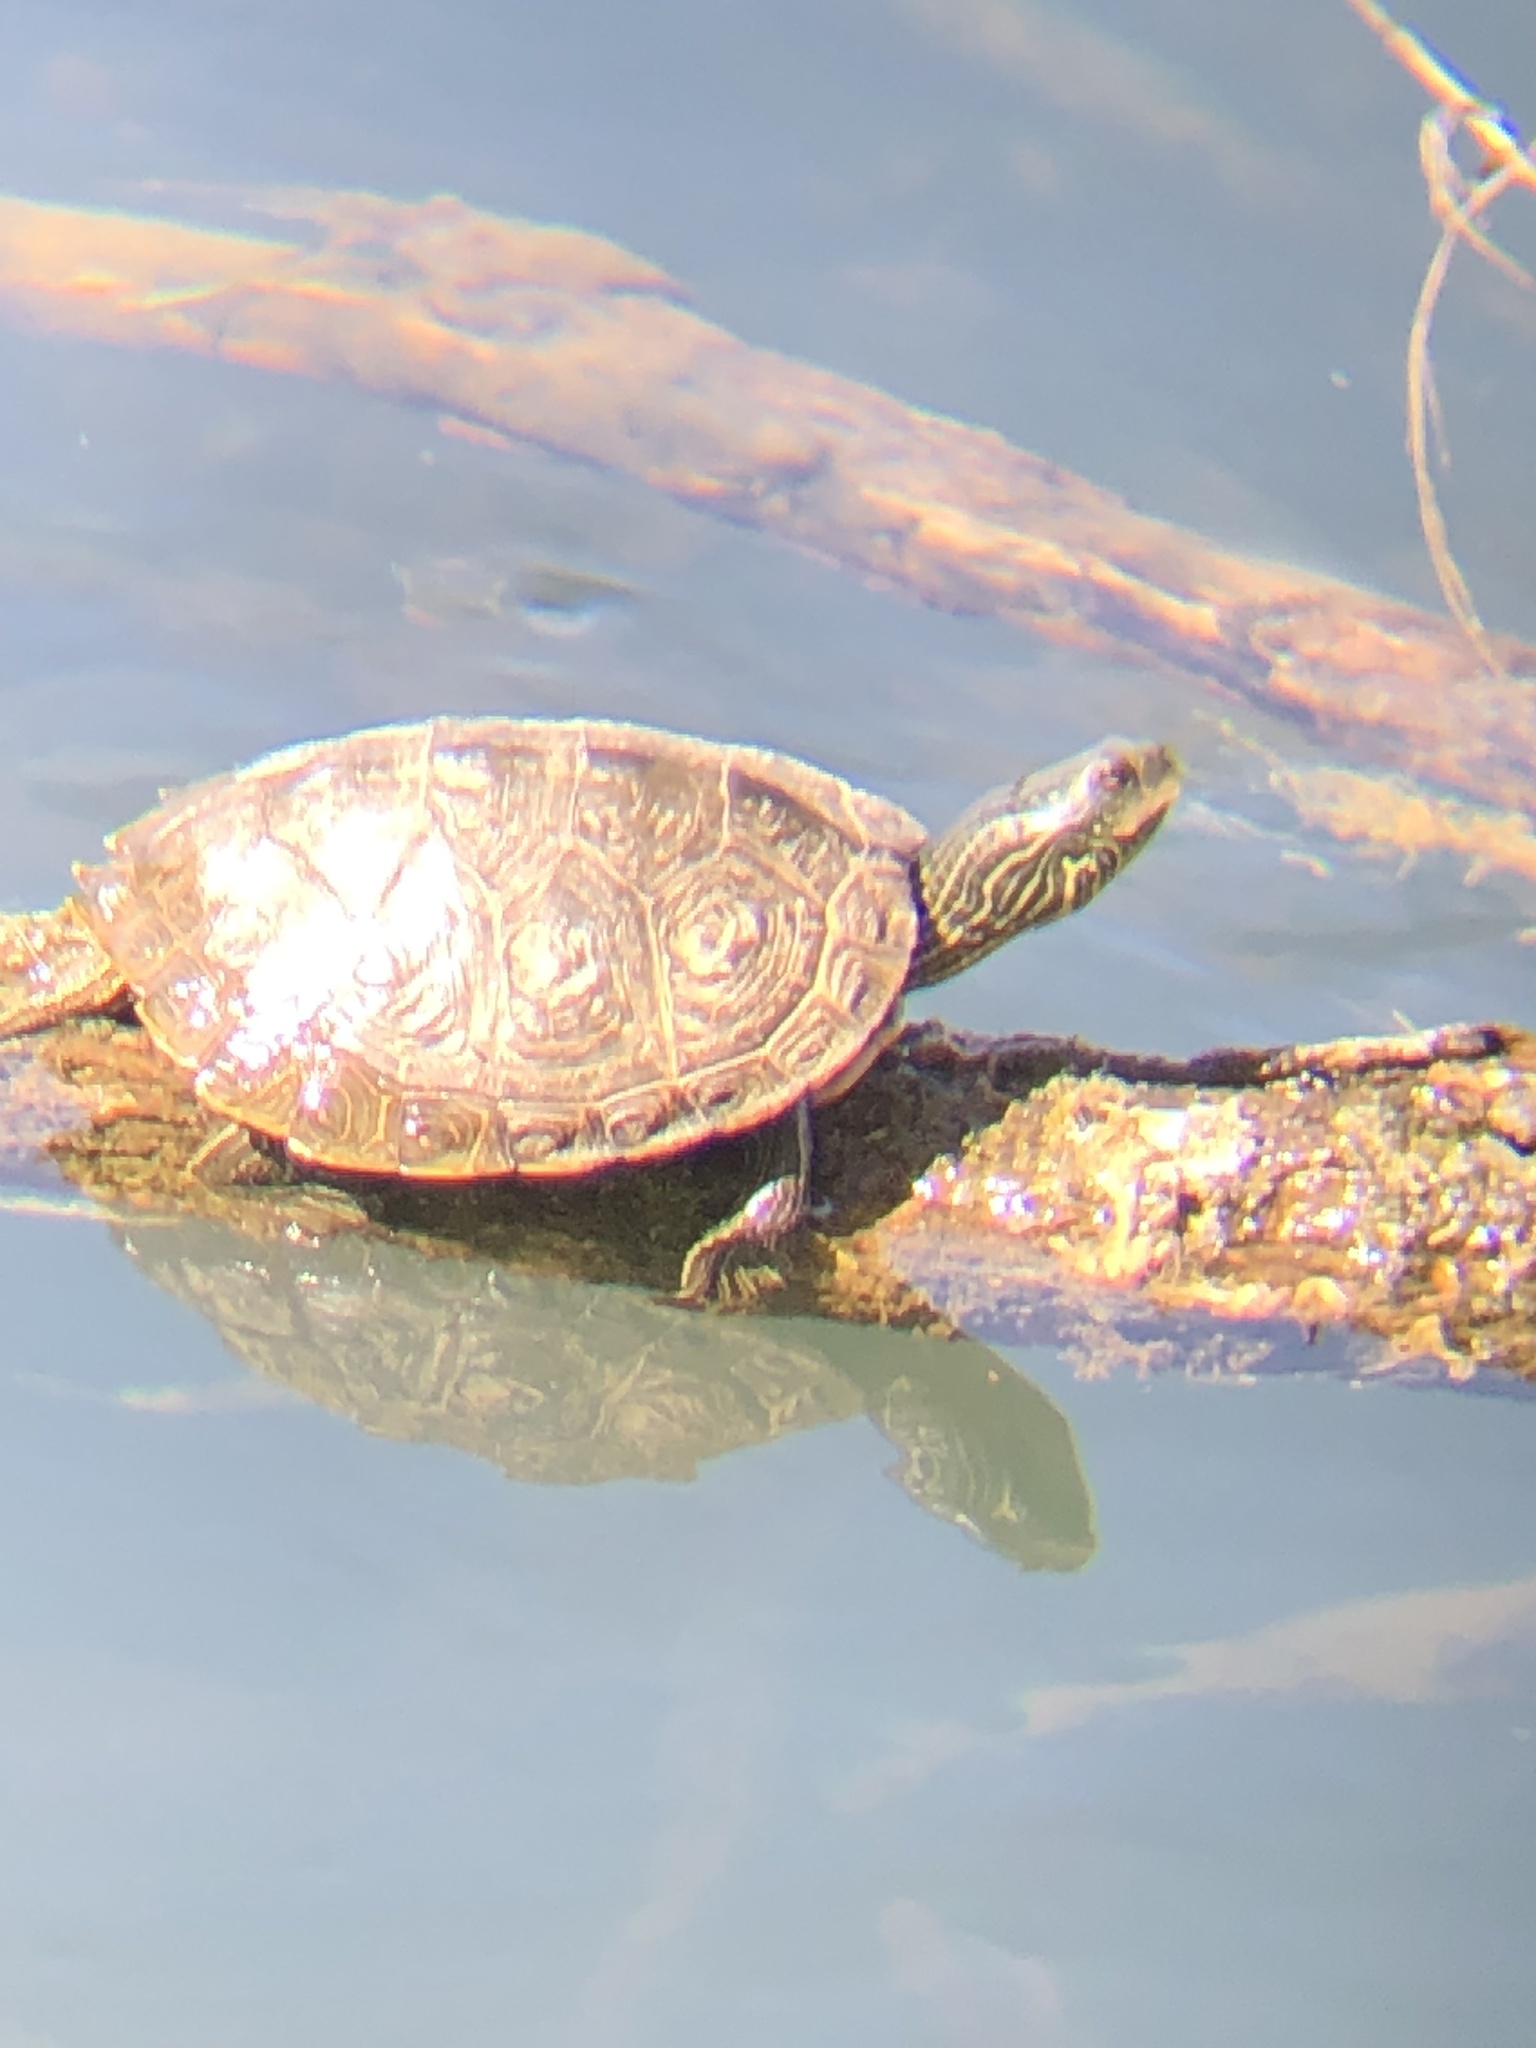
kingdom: Animalia
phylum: Chordata
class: Testudines
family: Emydidae
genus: Graptemys
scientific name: Graptemys geographica
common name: Common map turtle
